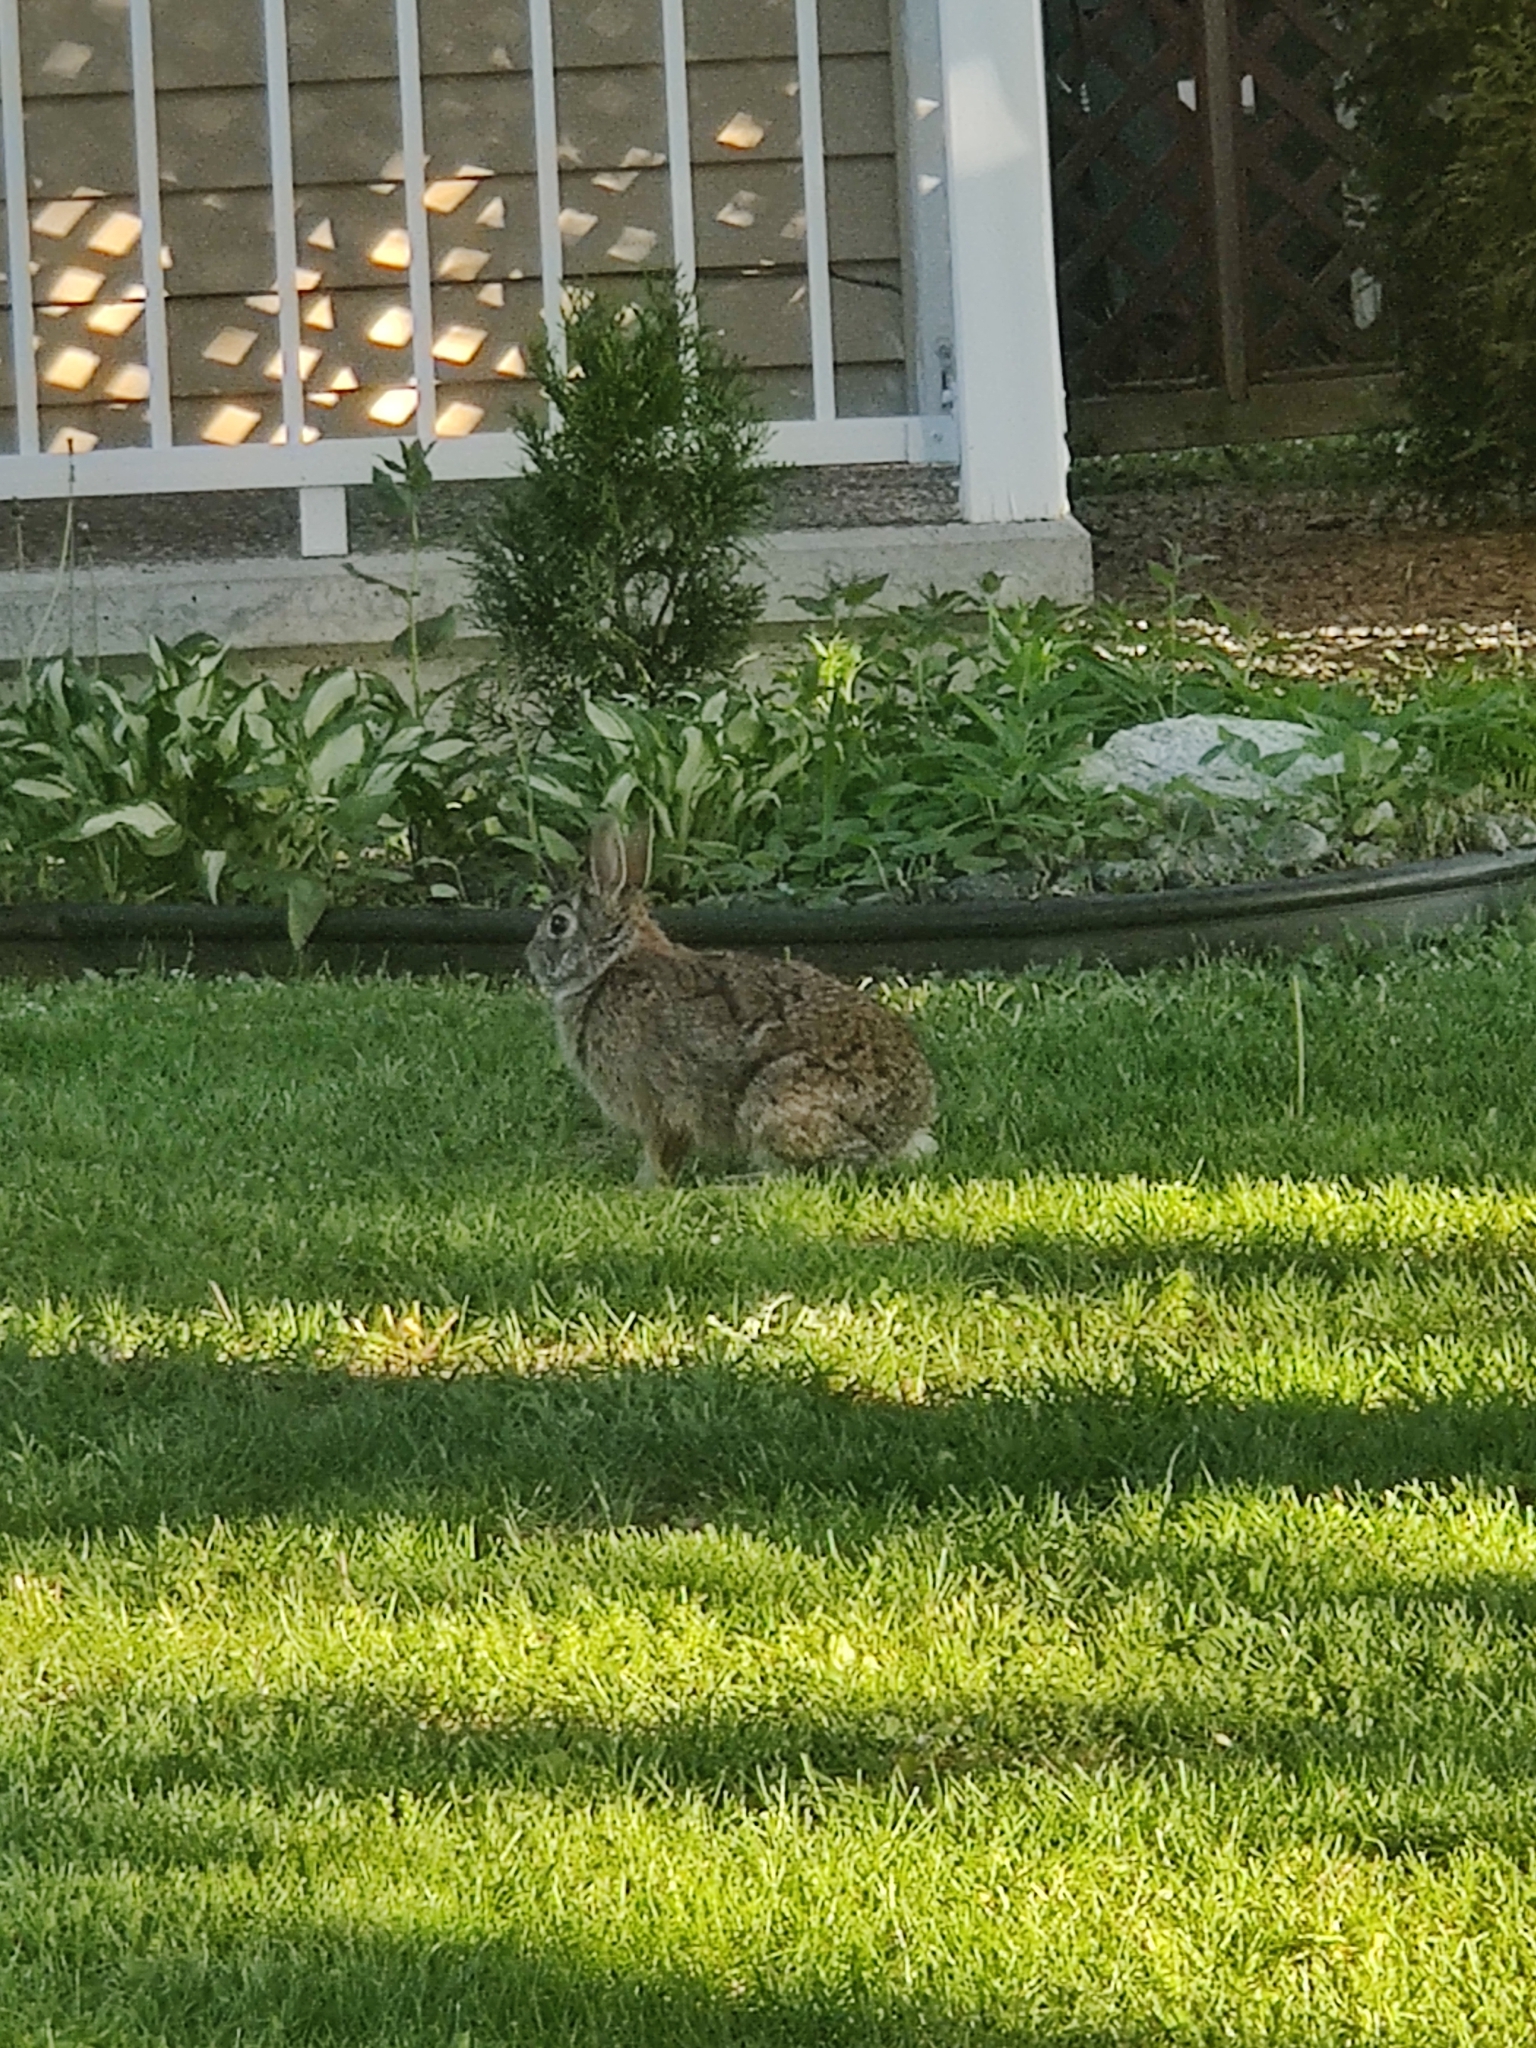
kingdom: Animalia
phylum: Chordata
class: Mammalia
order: Lagomorpha
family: Leporidae
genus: Sylvilagus
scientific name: Sylvilagus floridanus
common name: Eastern cottontail
